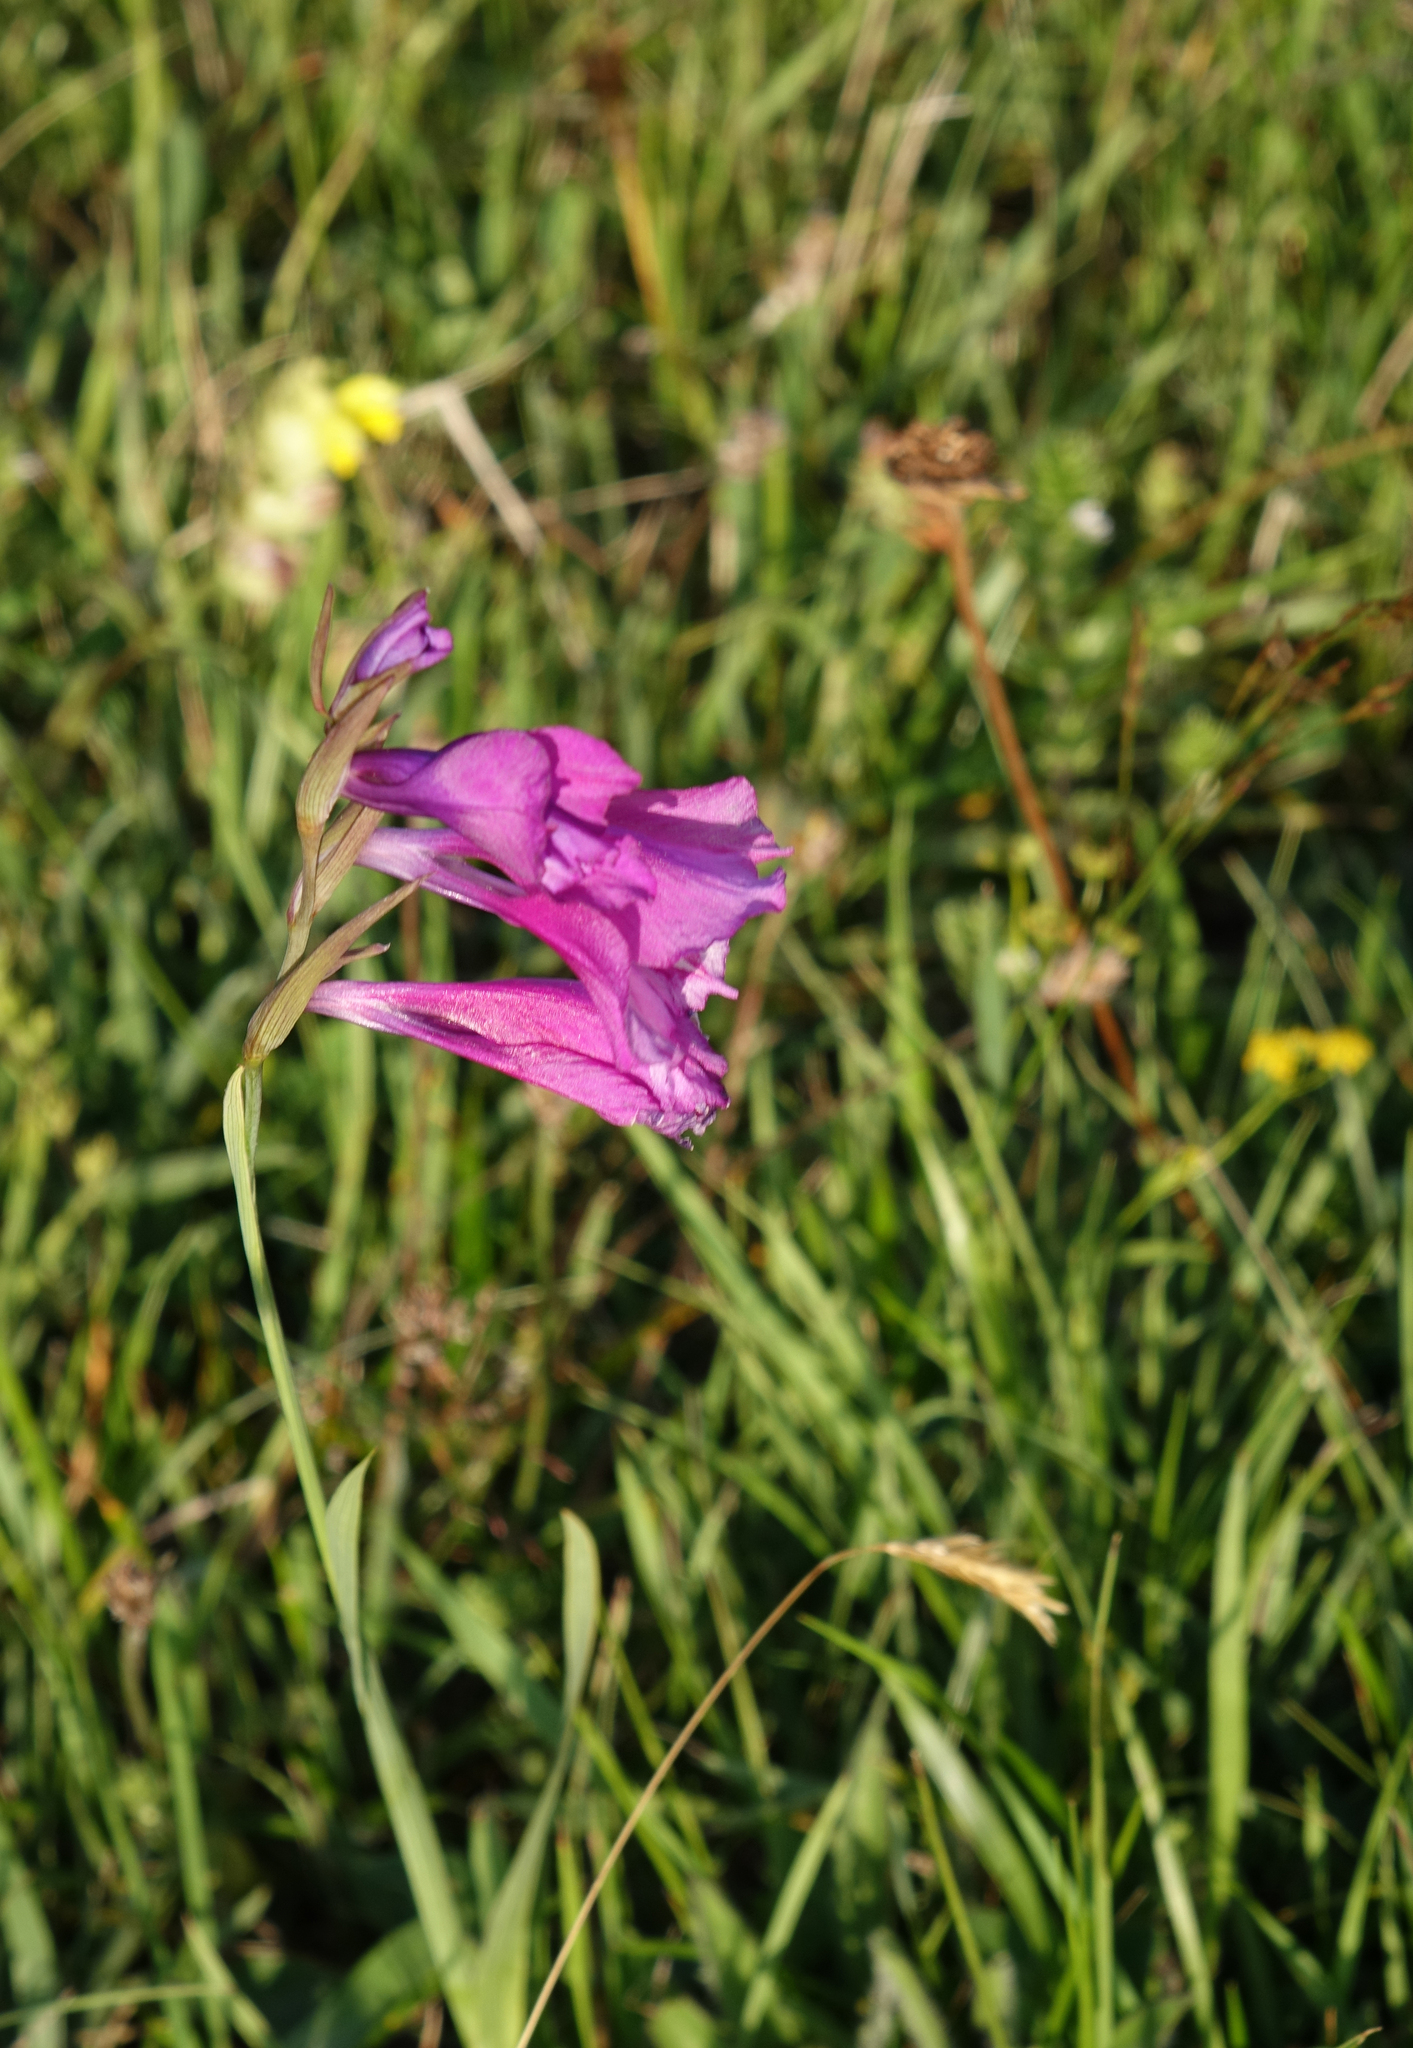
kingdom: Plantae
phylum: Tracheophyta
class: Liliopsida
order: Asparagales
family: Iridaceae
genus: Gladiolus
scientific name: Gladiolus tenuis
